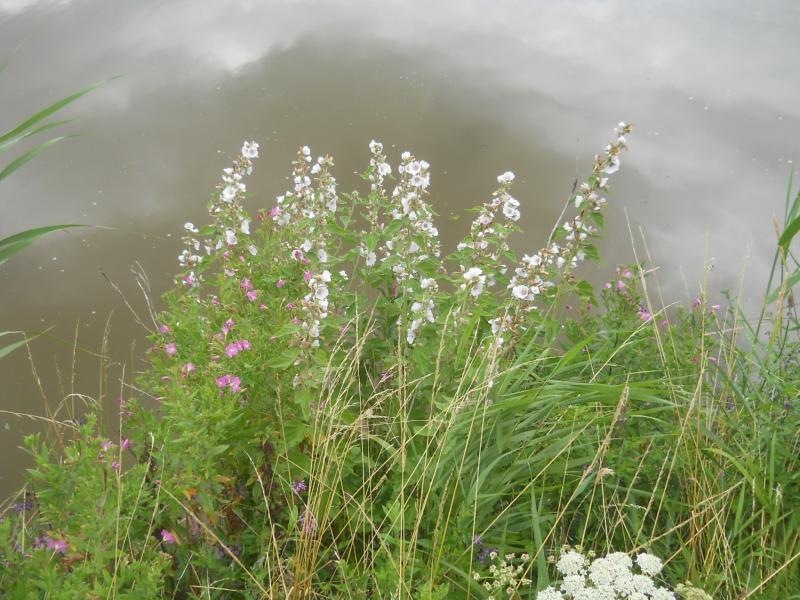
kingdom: Plantae
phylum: Tracheophyta
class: Magnoliopsida
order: Malvales
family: Malvaceae
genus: Althaea
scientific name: Althaea officinalis
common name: Marsh-mallow
